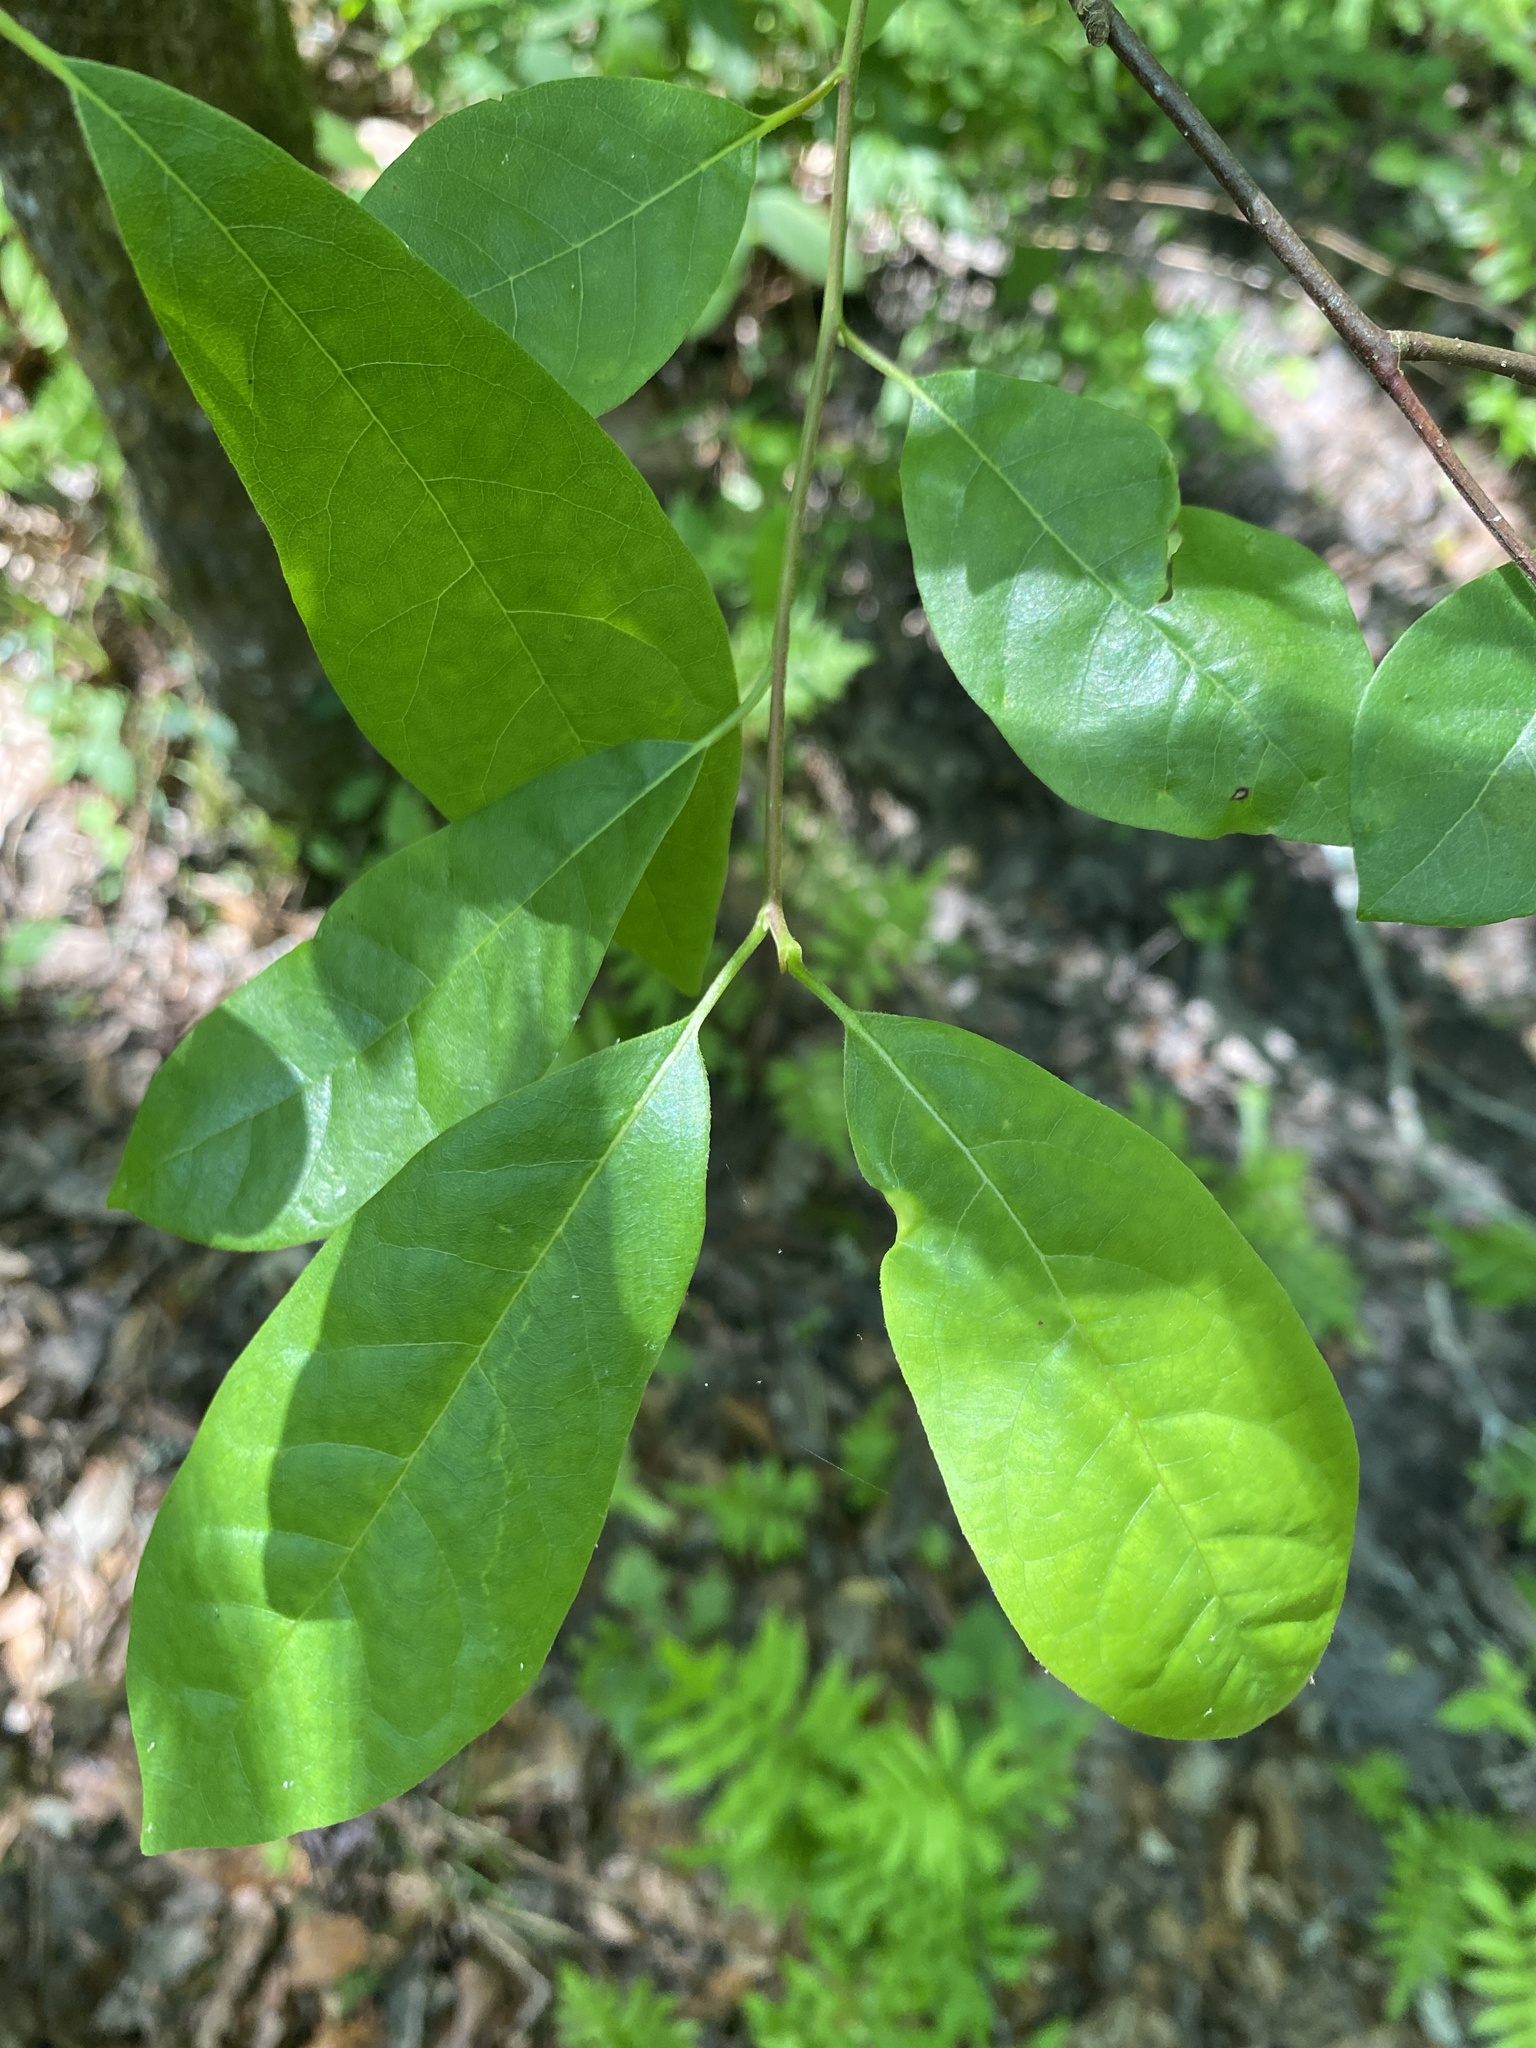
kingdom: Plantae
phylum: Tracheophyta
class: Magnoliopsida
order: Cornales
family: Nyssaceae
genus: Nyssa
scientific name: Nyssa biflora
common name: Swamp blackgum
